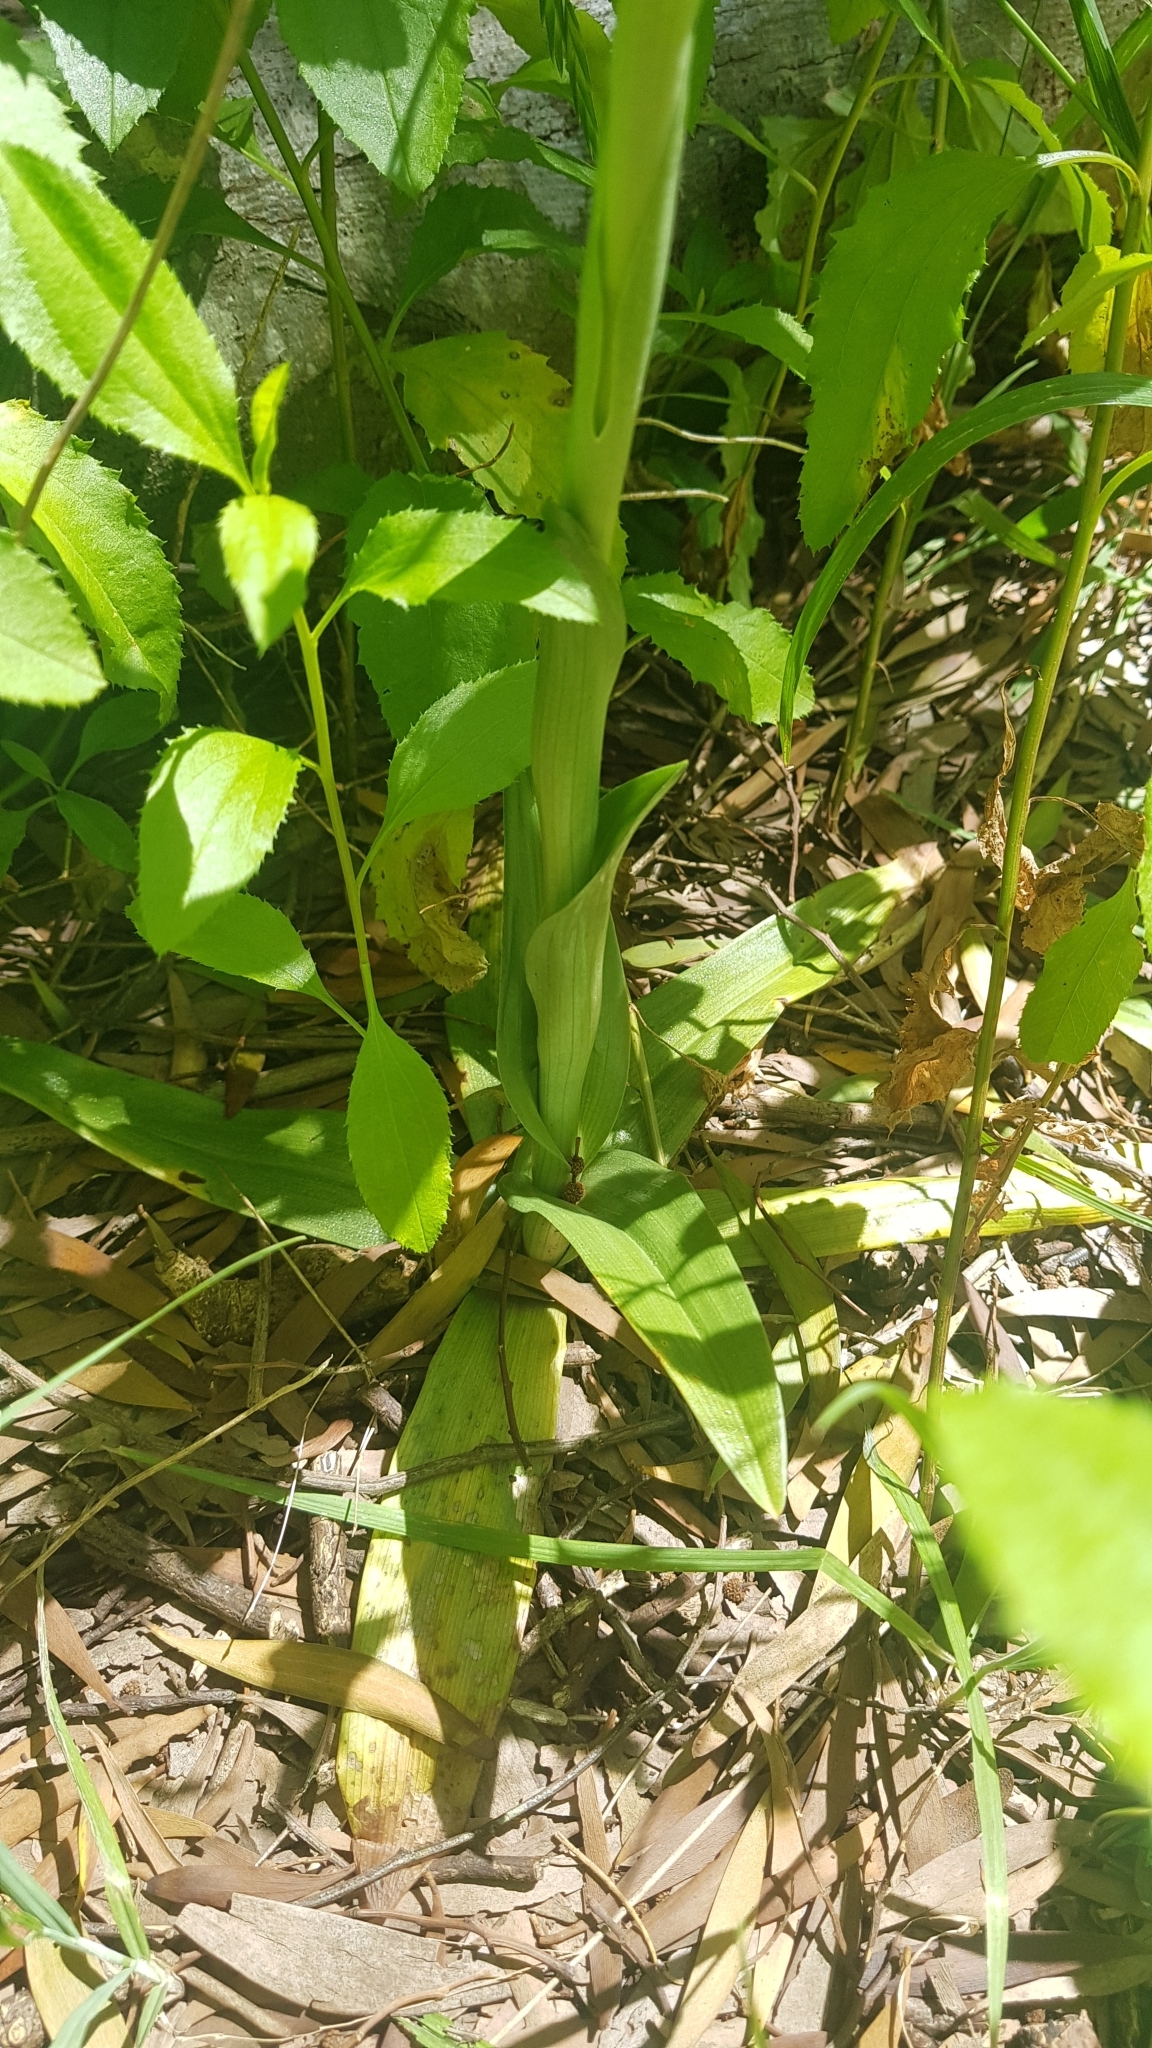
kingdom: Plantae
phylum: Tracheophyta
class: Liliopsida
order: Asparagales
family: Orchidaceae
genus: Chloraea
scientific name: Chloraea membranacea
